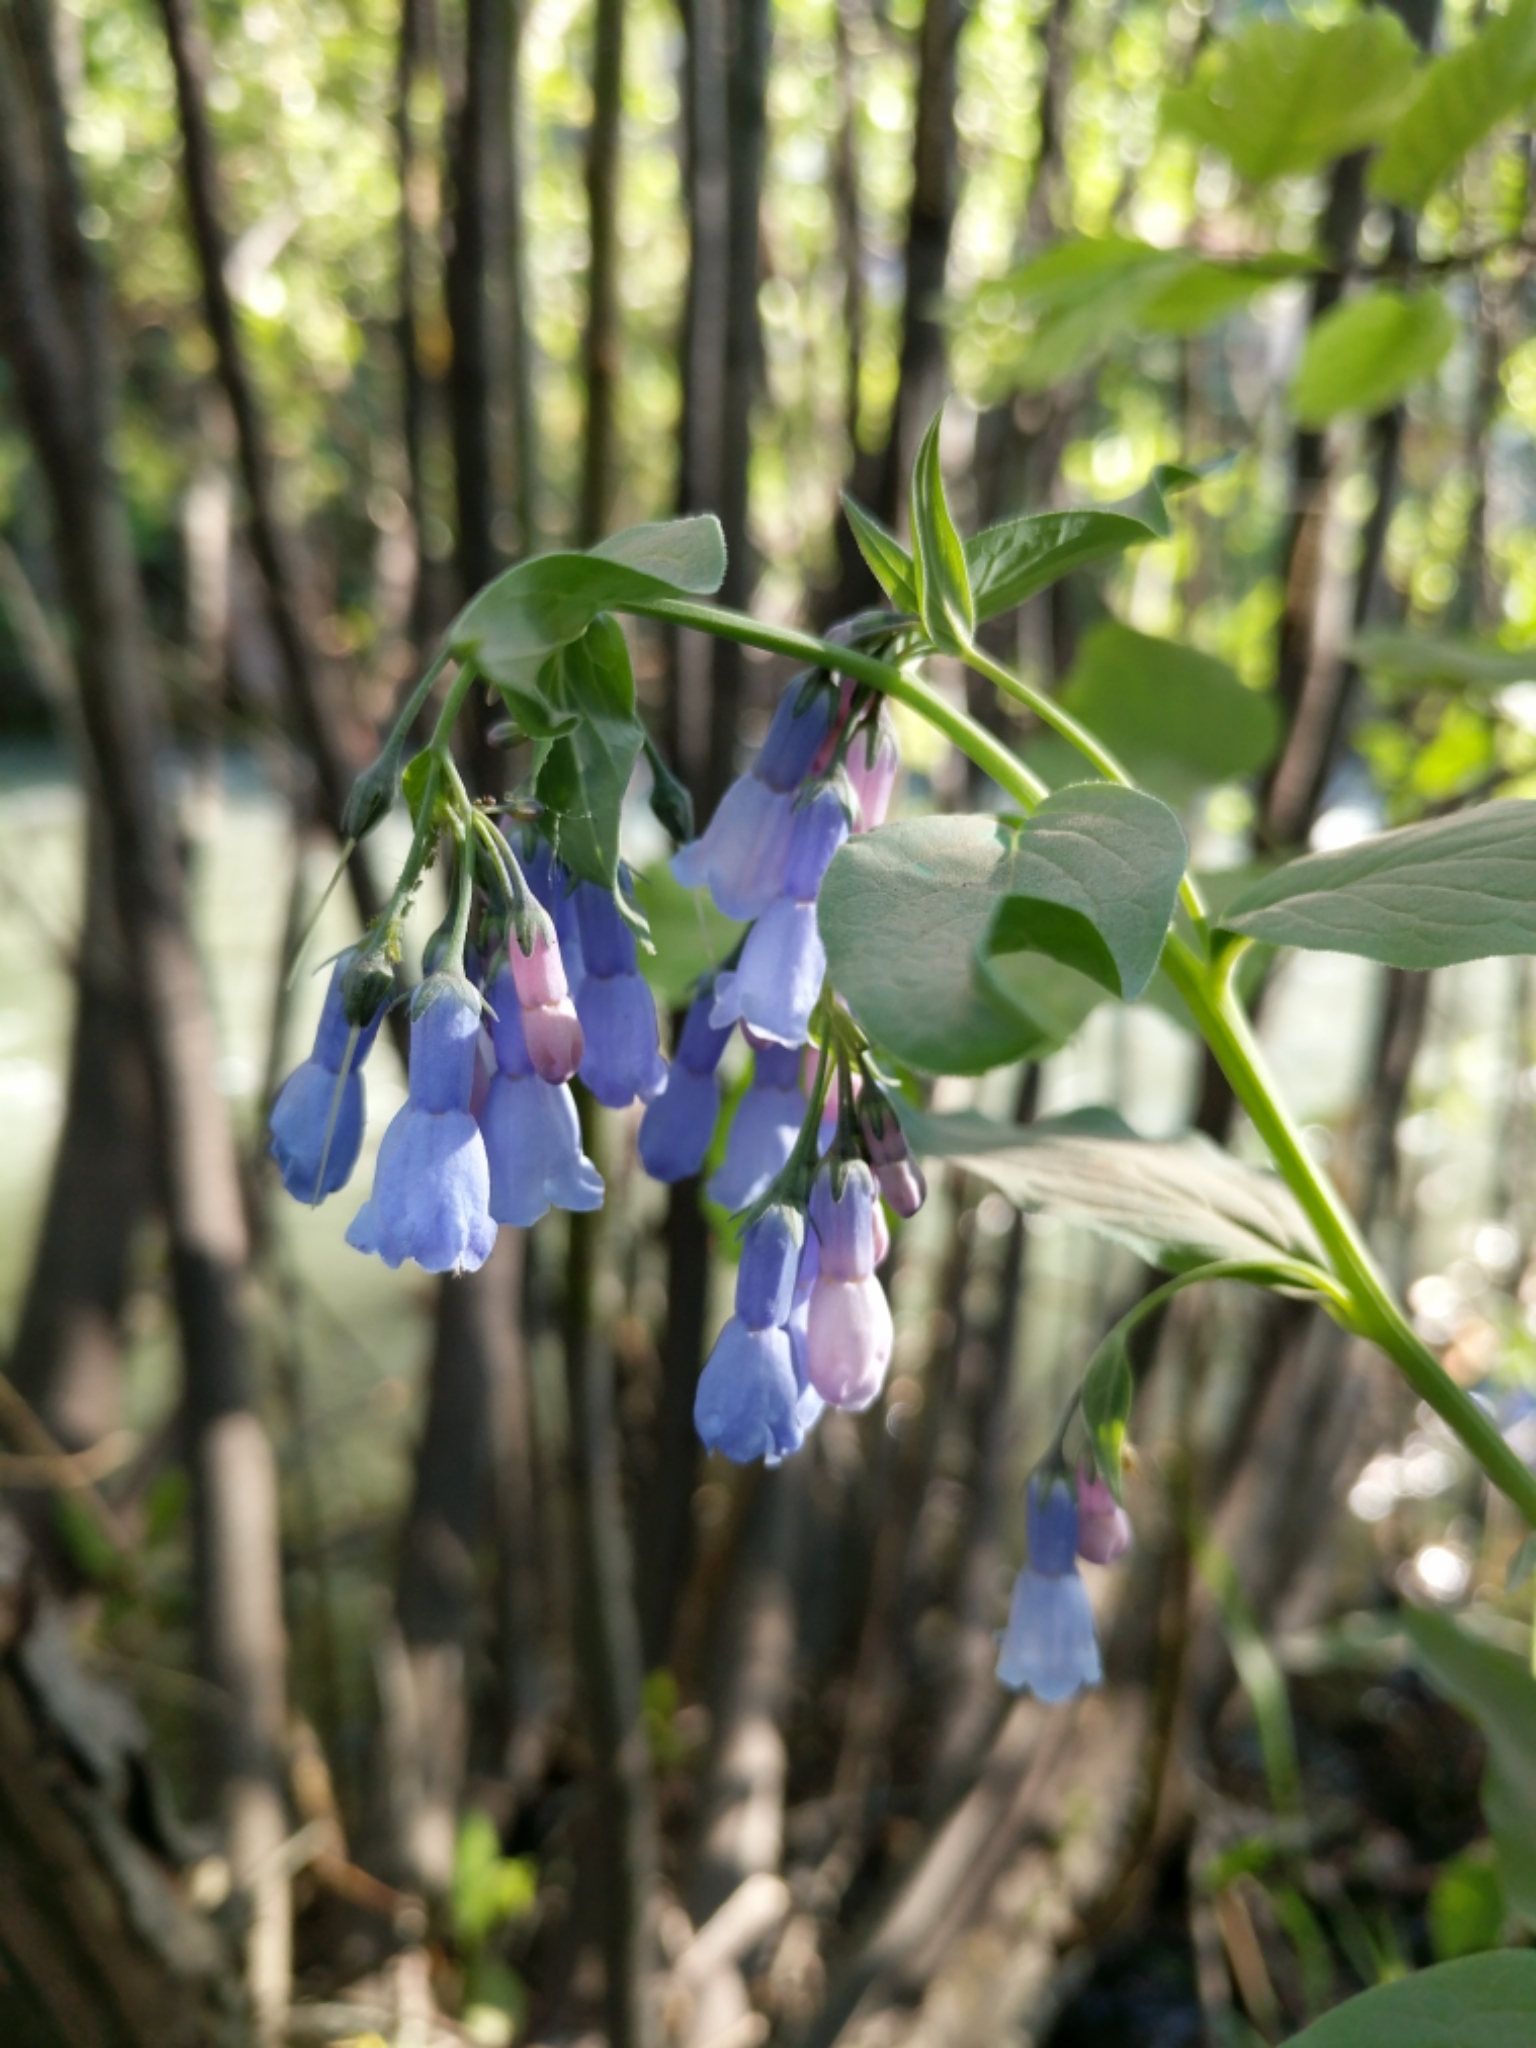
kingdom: Plantae
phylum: Tracheophyta
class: Magnoliopsida
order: Boraginales
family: Boraginaceae
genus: Mertensia
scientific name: Mertensia ciliata
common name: Tall chiming-bells
